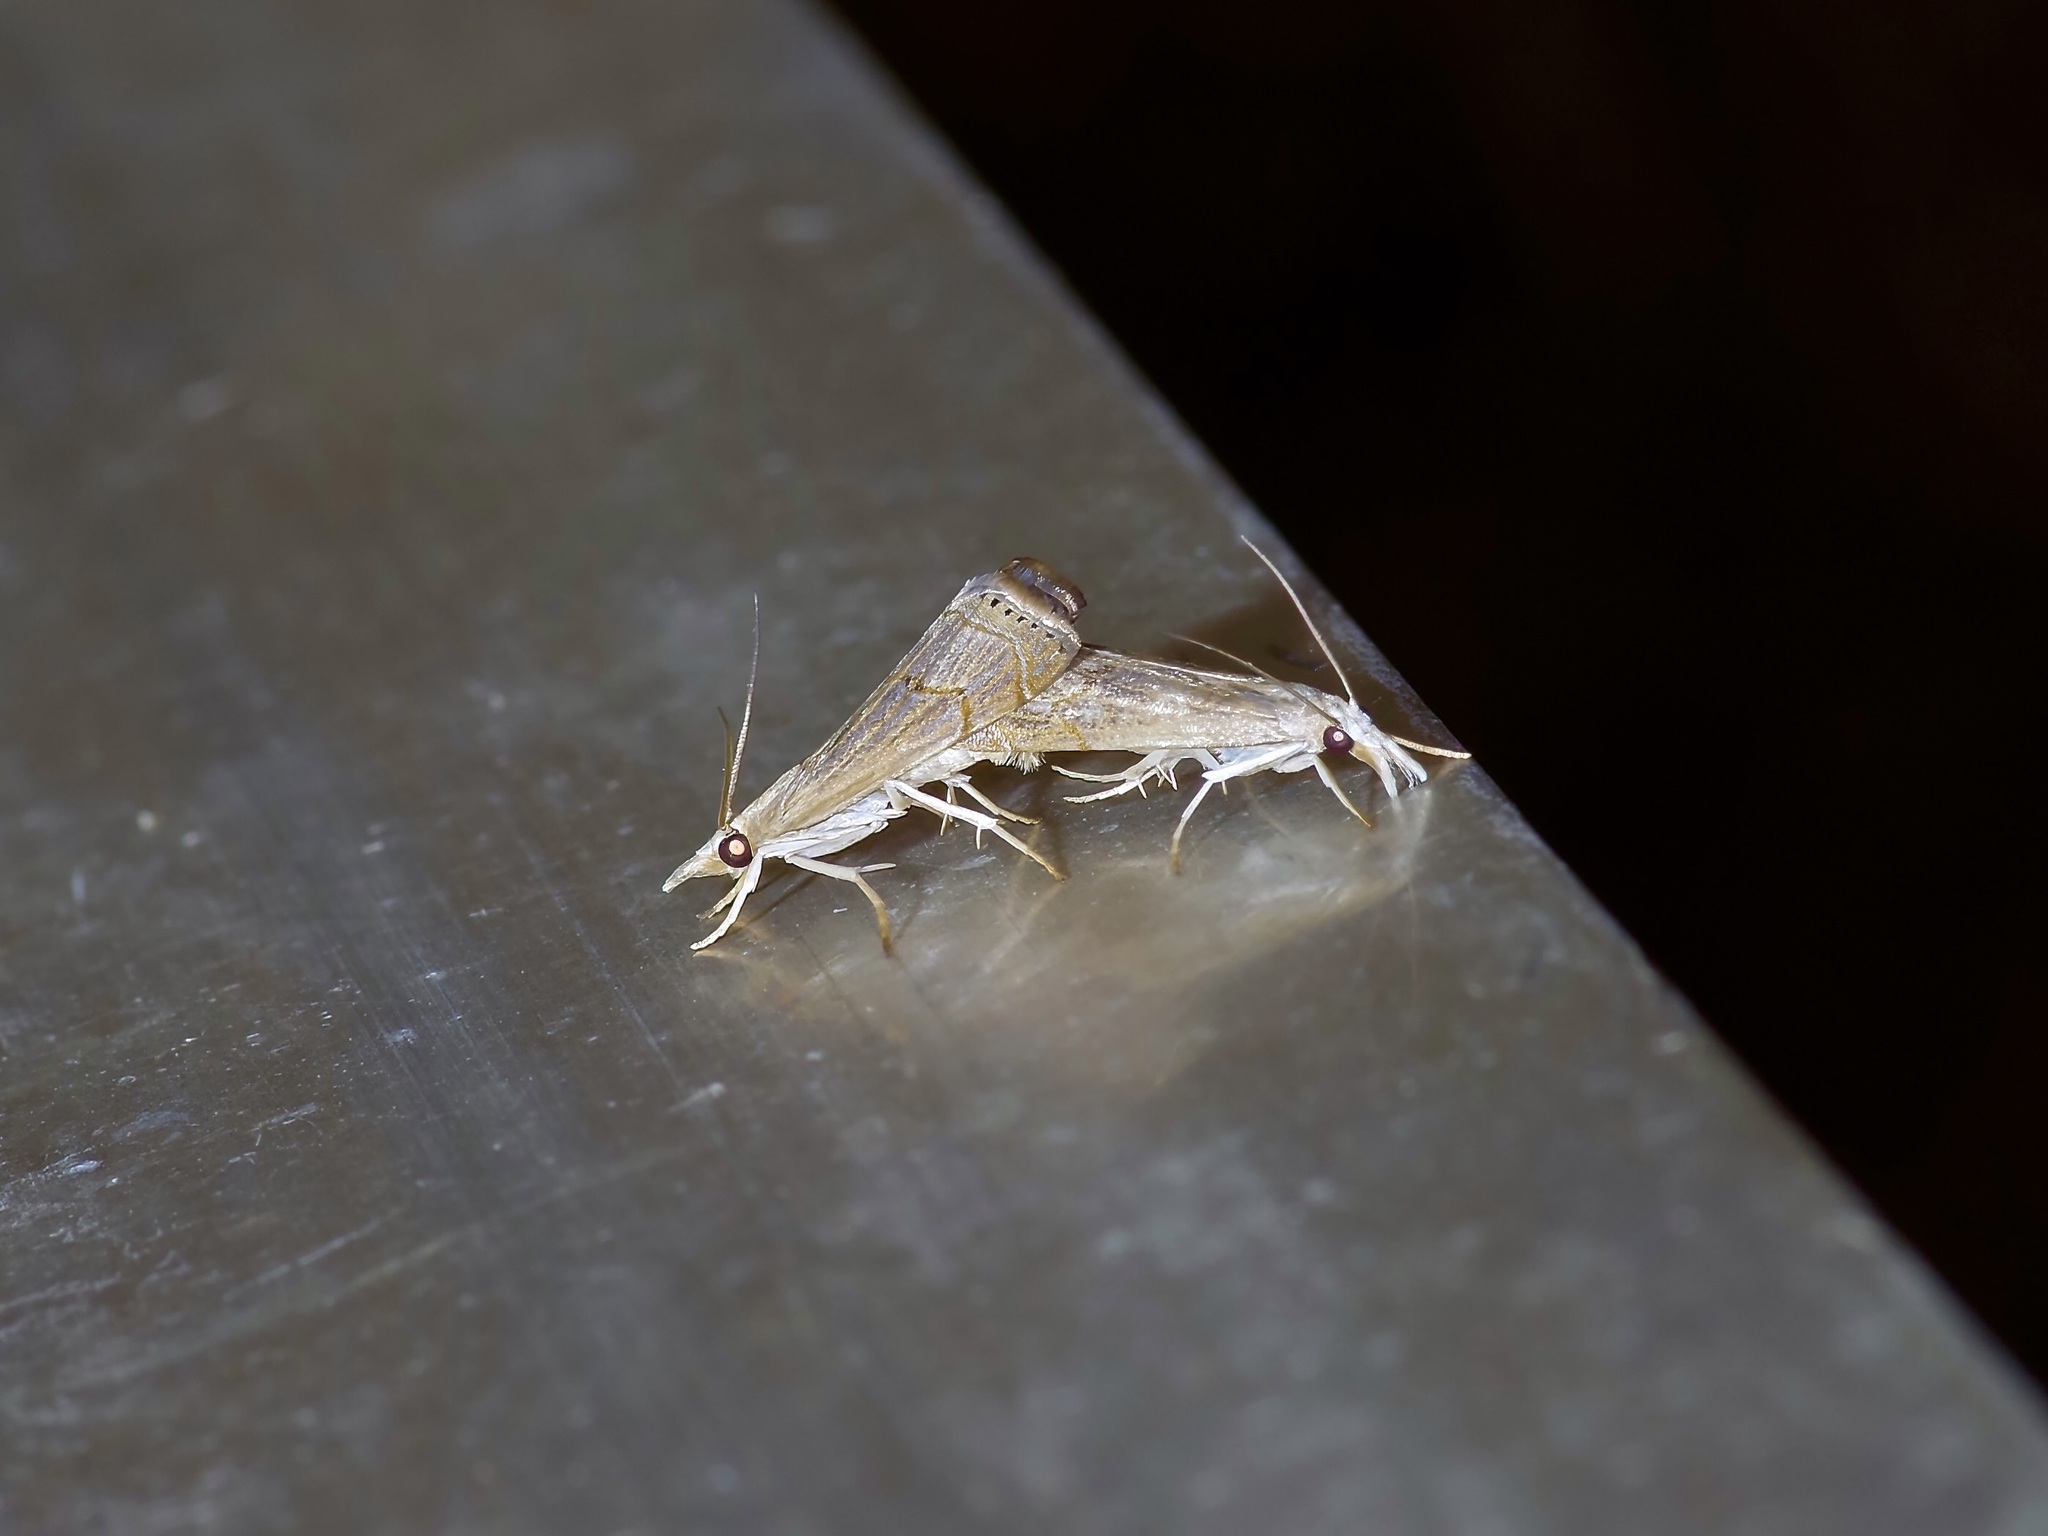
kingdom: Animalia
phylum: Arthropoda
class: Insecta
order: Lepidoptera
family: Crambidae
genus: Parapediasia
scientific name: Parapediasia teterellus
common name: Bluegrass webworm moth
